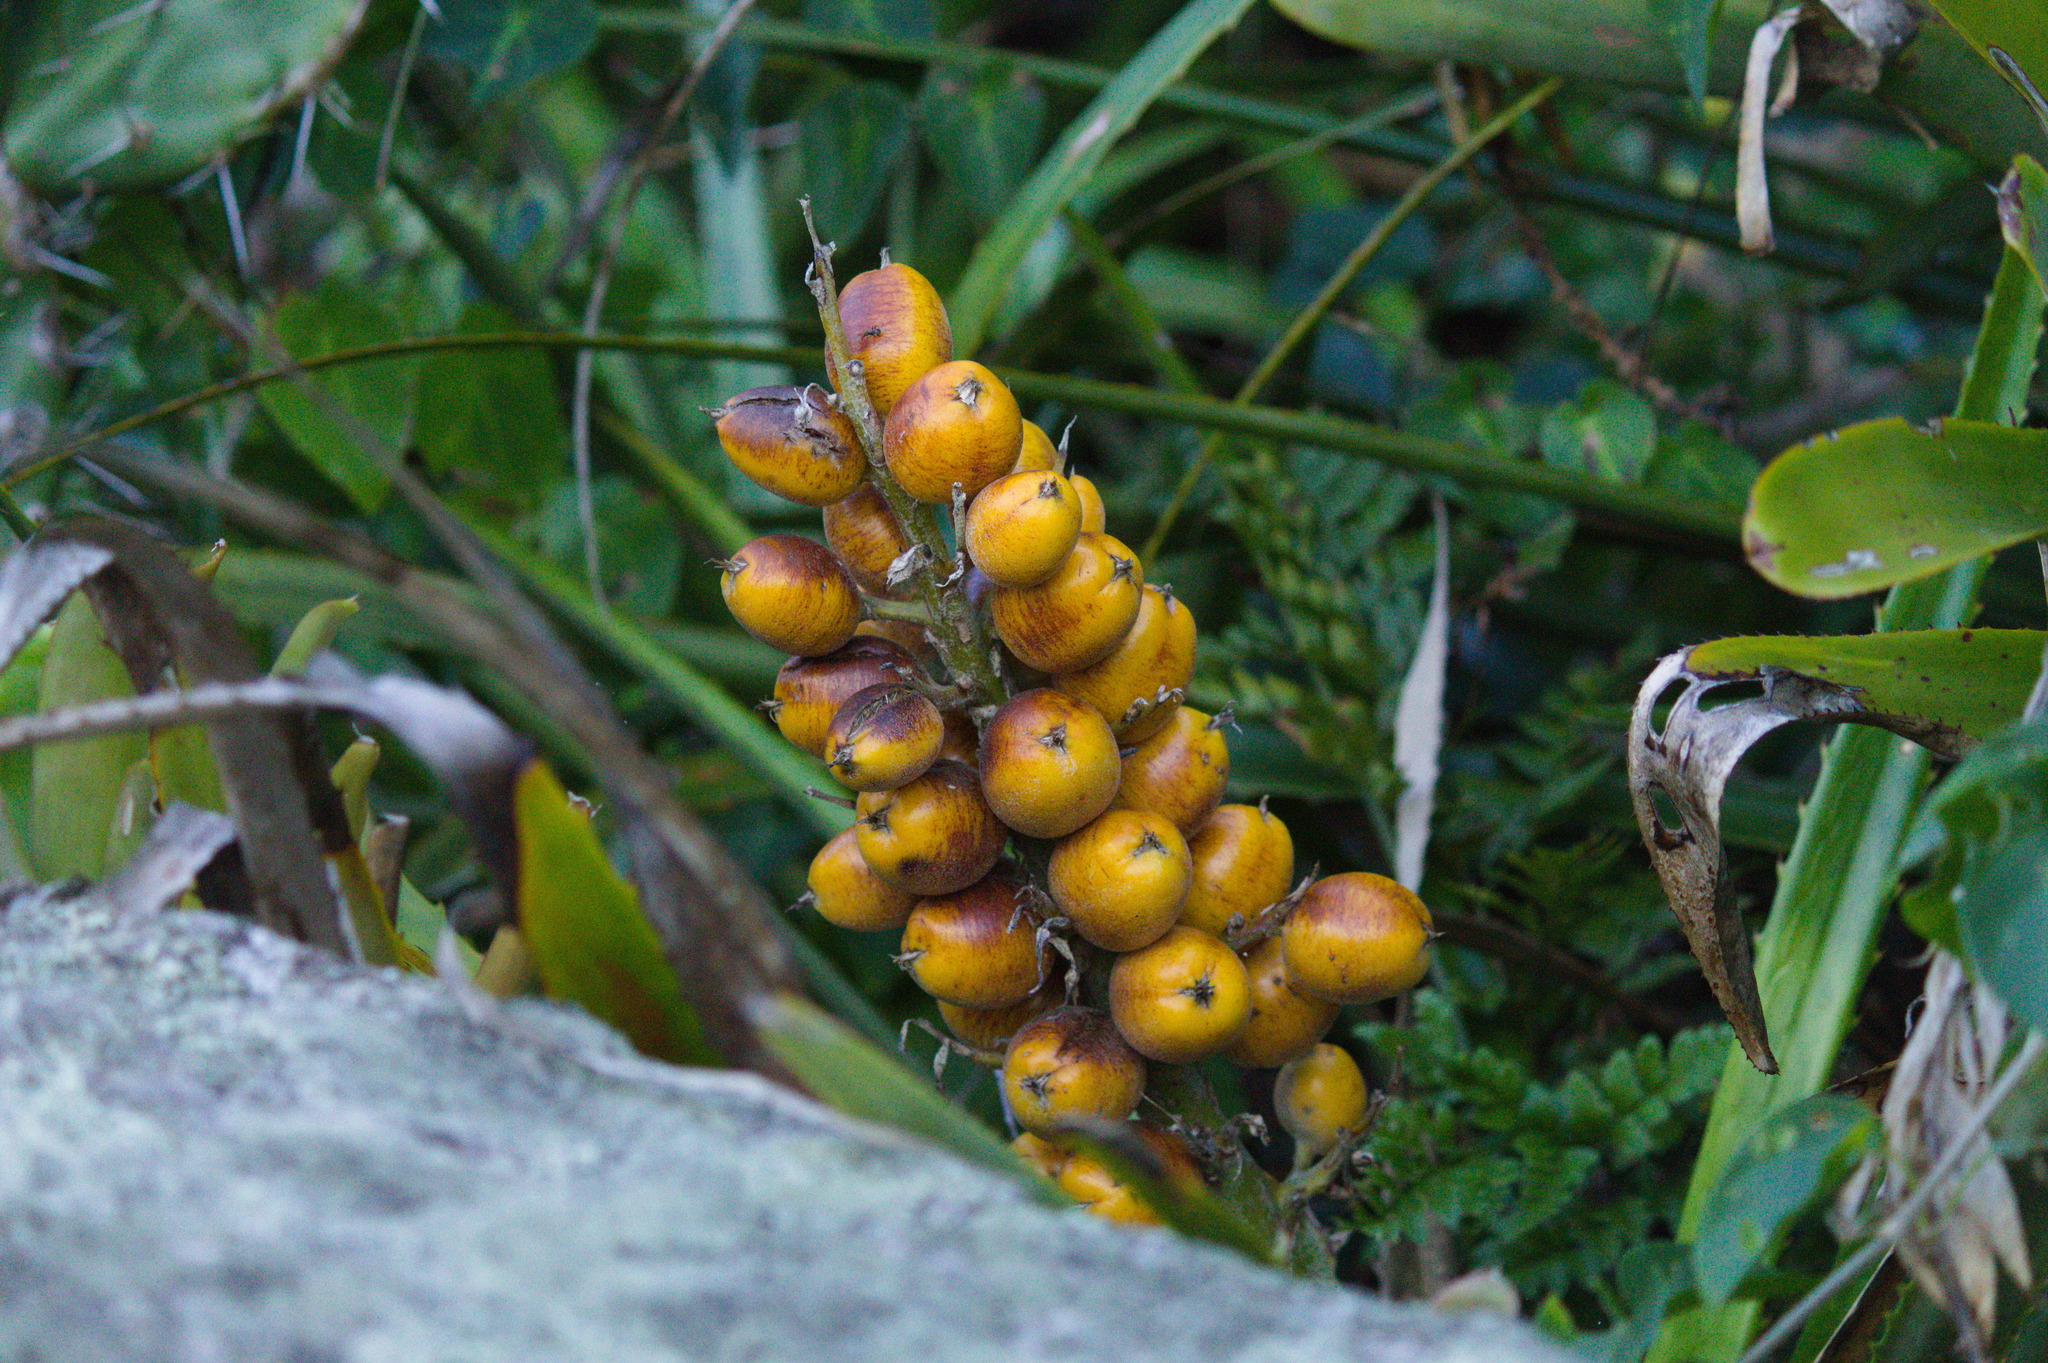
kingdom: Plantae
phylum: Tracheophyta
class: Liliopsida
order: Poales
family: Bromeliaceae
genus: Bromelia
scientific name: Bromelia antiacantha
